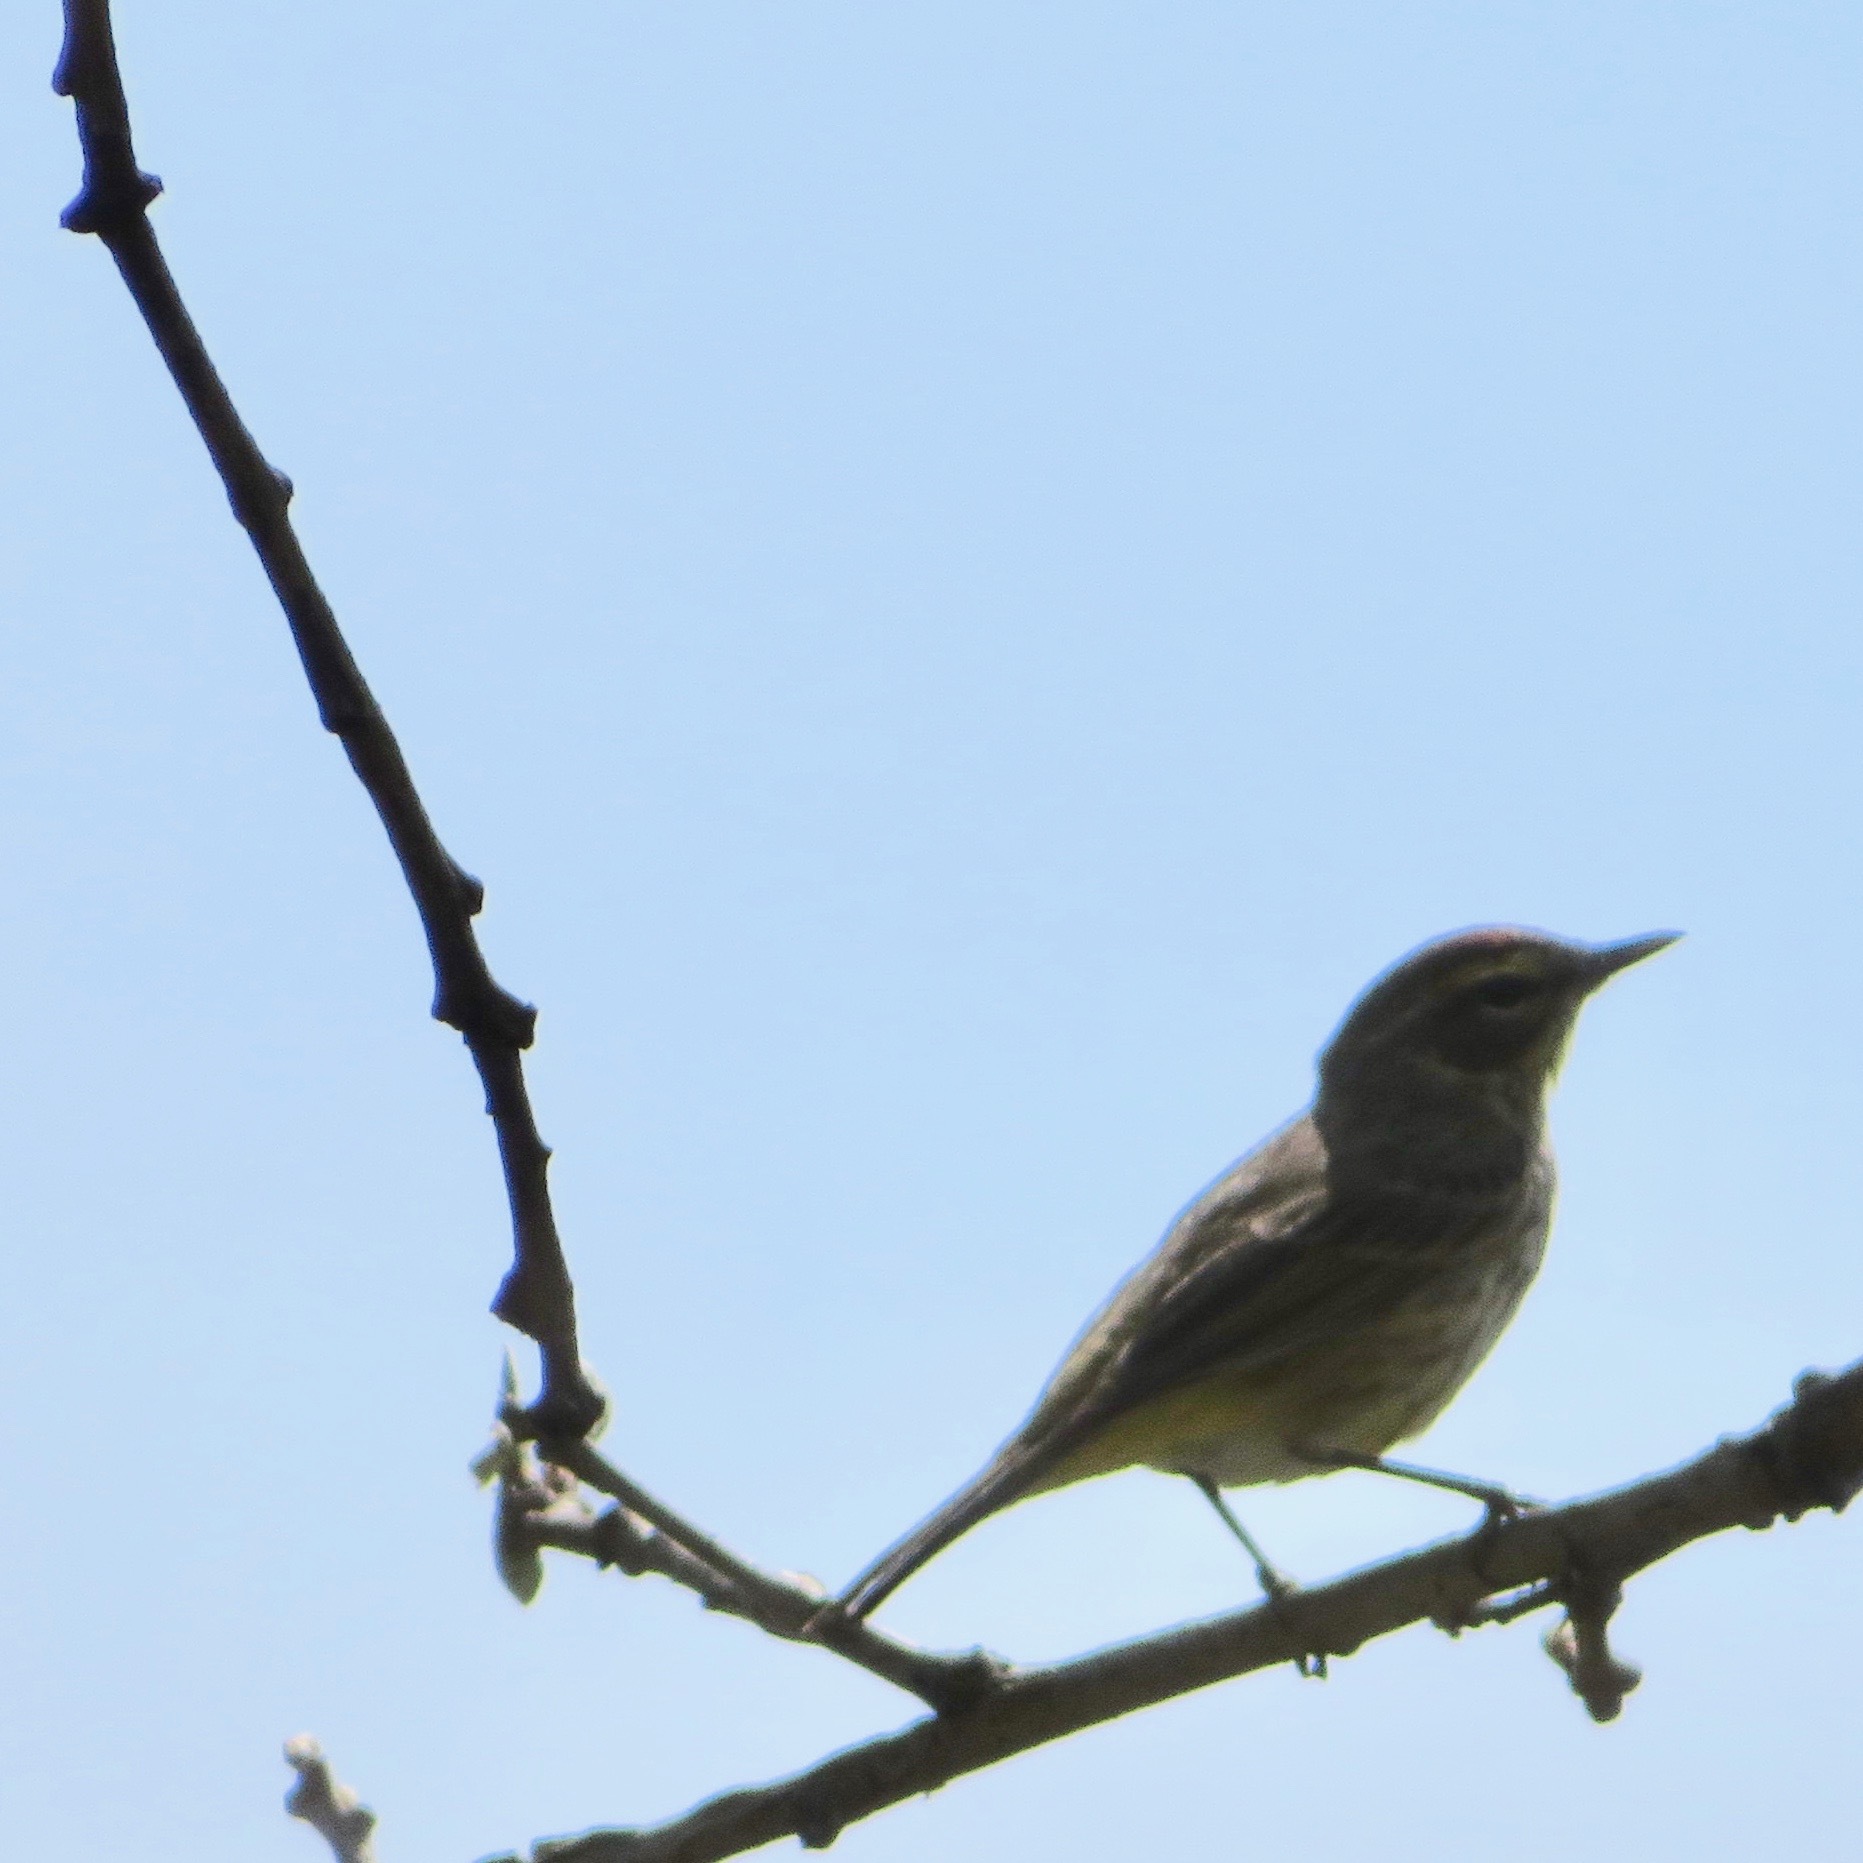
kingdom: Animalia
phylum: Chordata
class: Aves
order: Passeriformes
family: Parulidae
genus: Setophaga
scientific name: Setophaga palmarum
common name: Palm warbler
